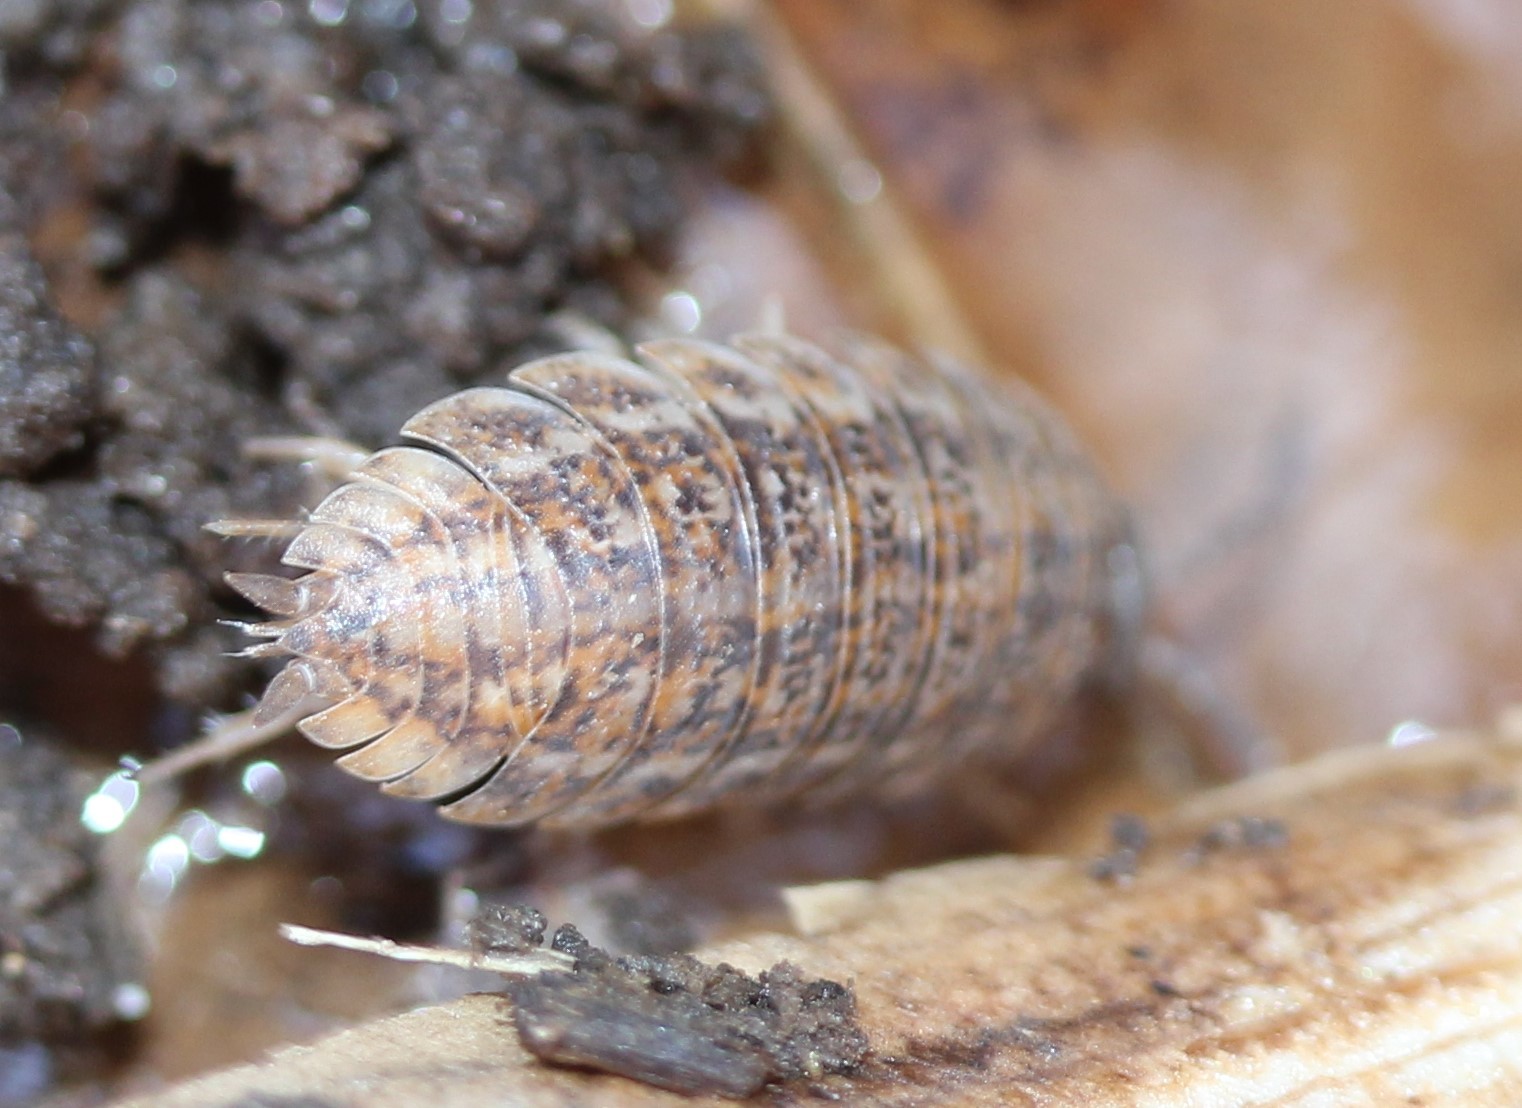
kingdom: Animalia
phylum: Arthropoda
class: Malacostraca
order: Isopoda
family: Trachelipodidae
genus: Trachelipus
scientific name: Trachelipus rathkii
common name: Isopod
